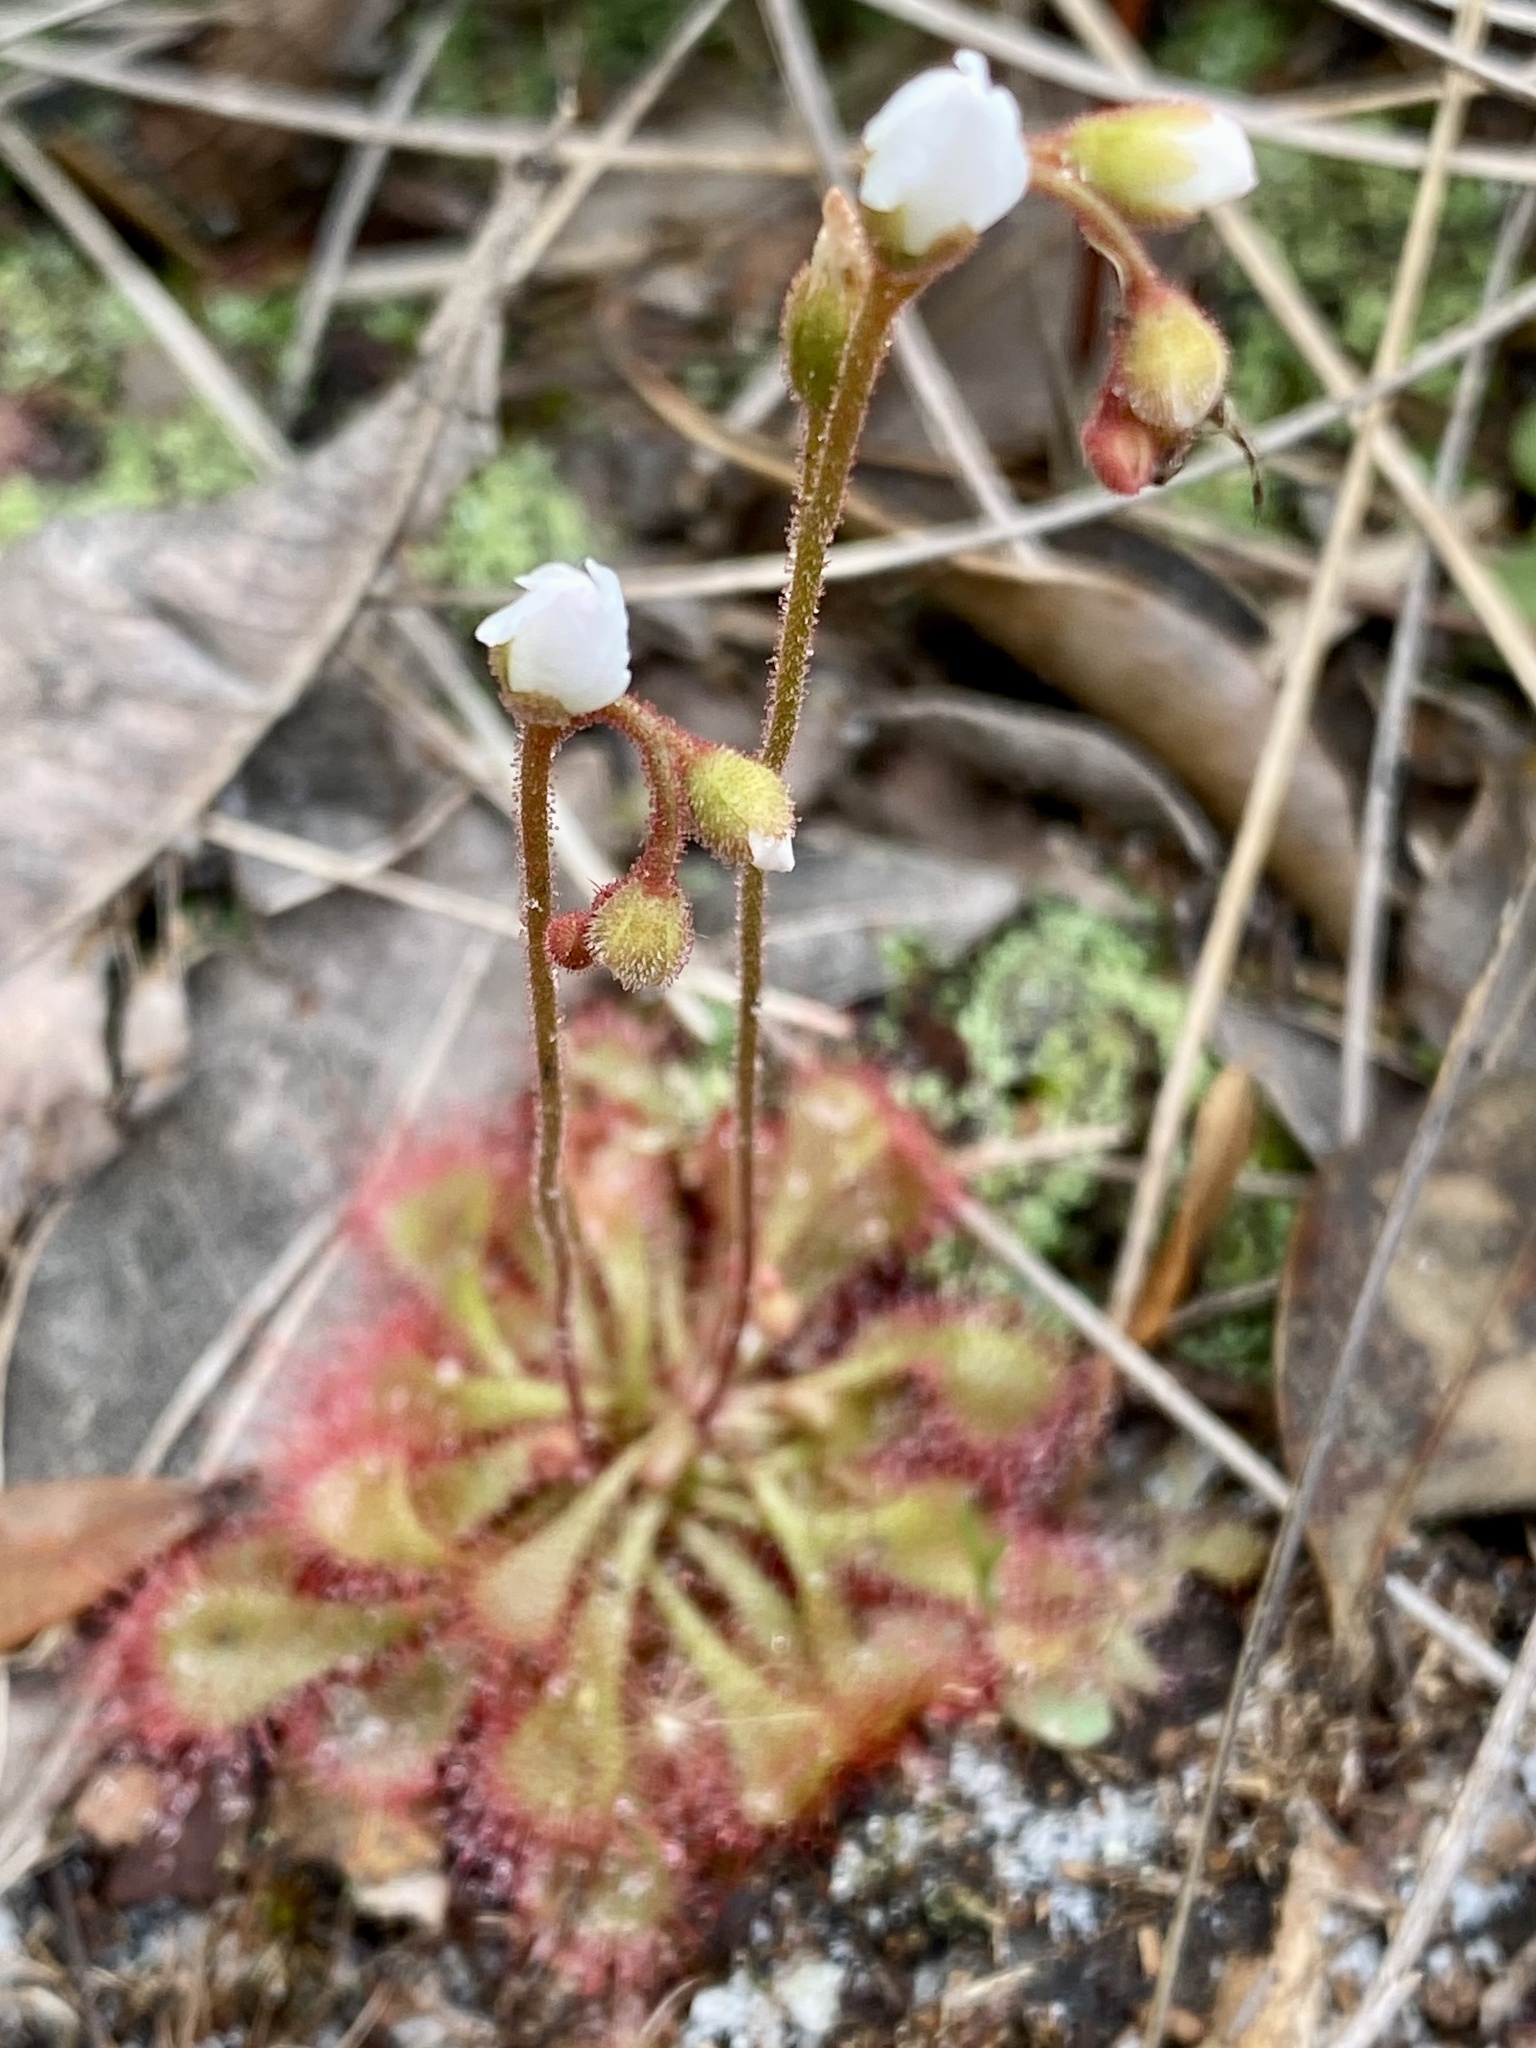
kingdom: Plantae
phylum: Tracheophyta
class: Magnoliopsida
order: Caryophyllales
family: Droseraceae
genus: Drosera
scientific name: Drosera brevifolia
